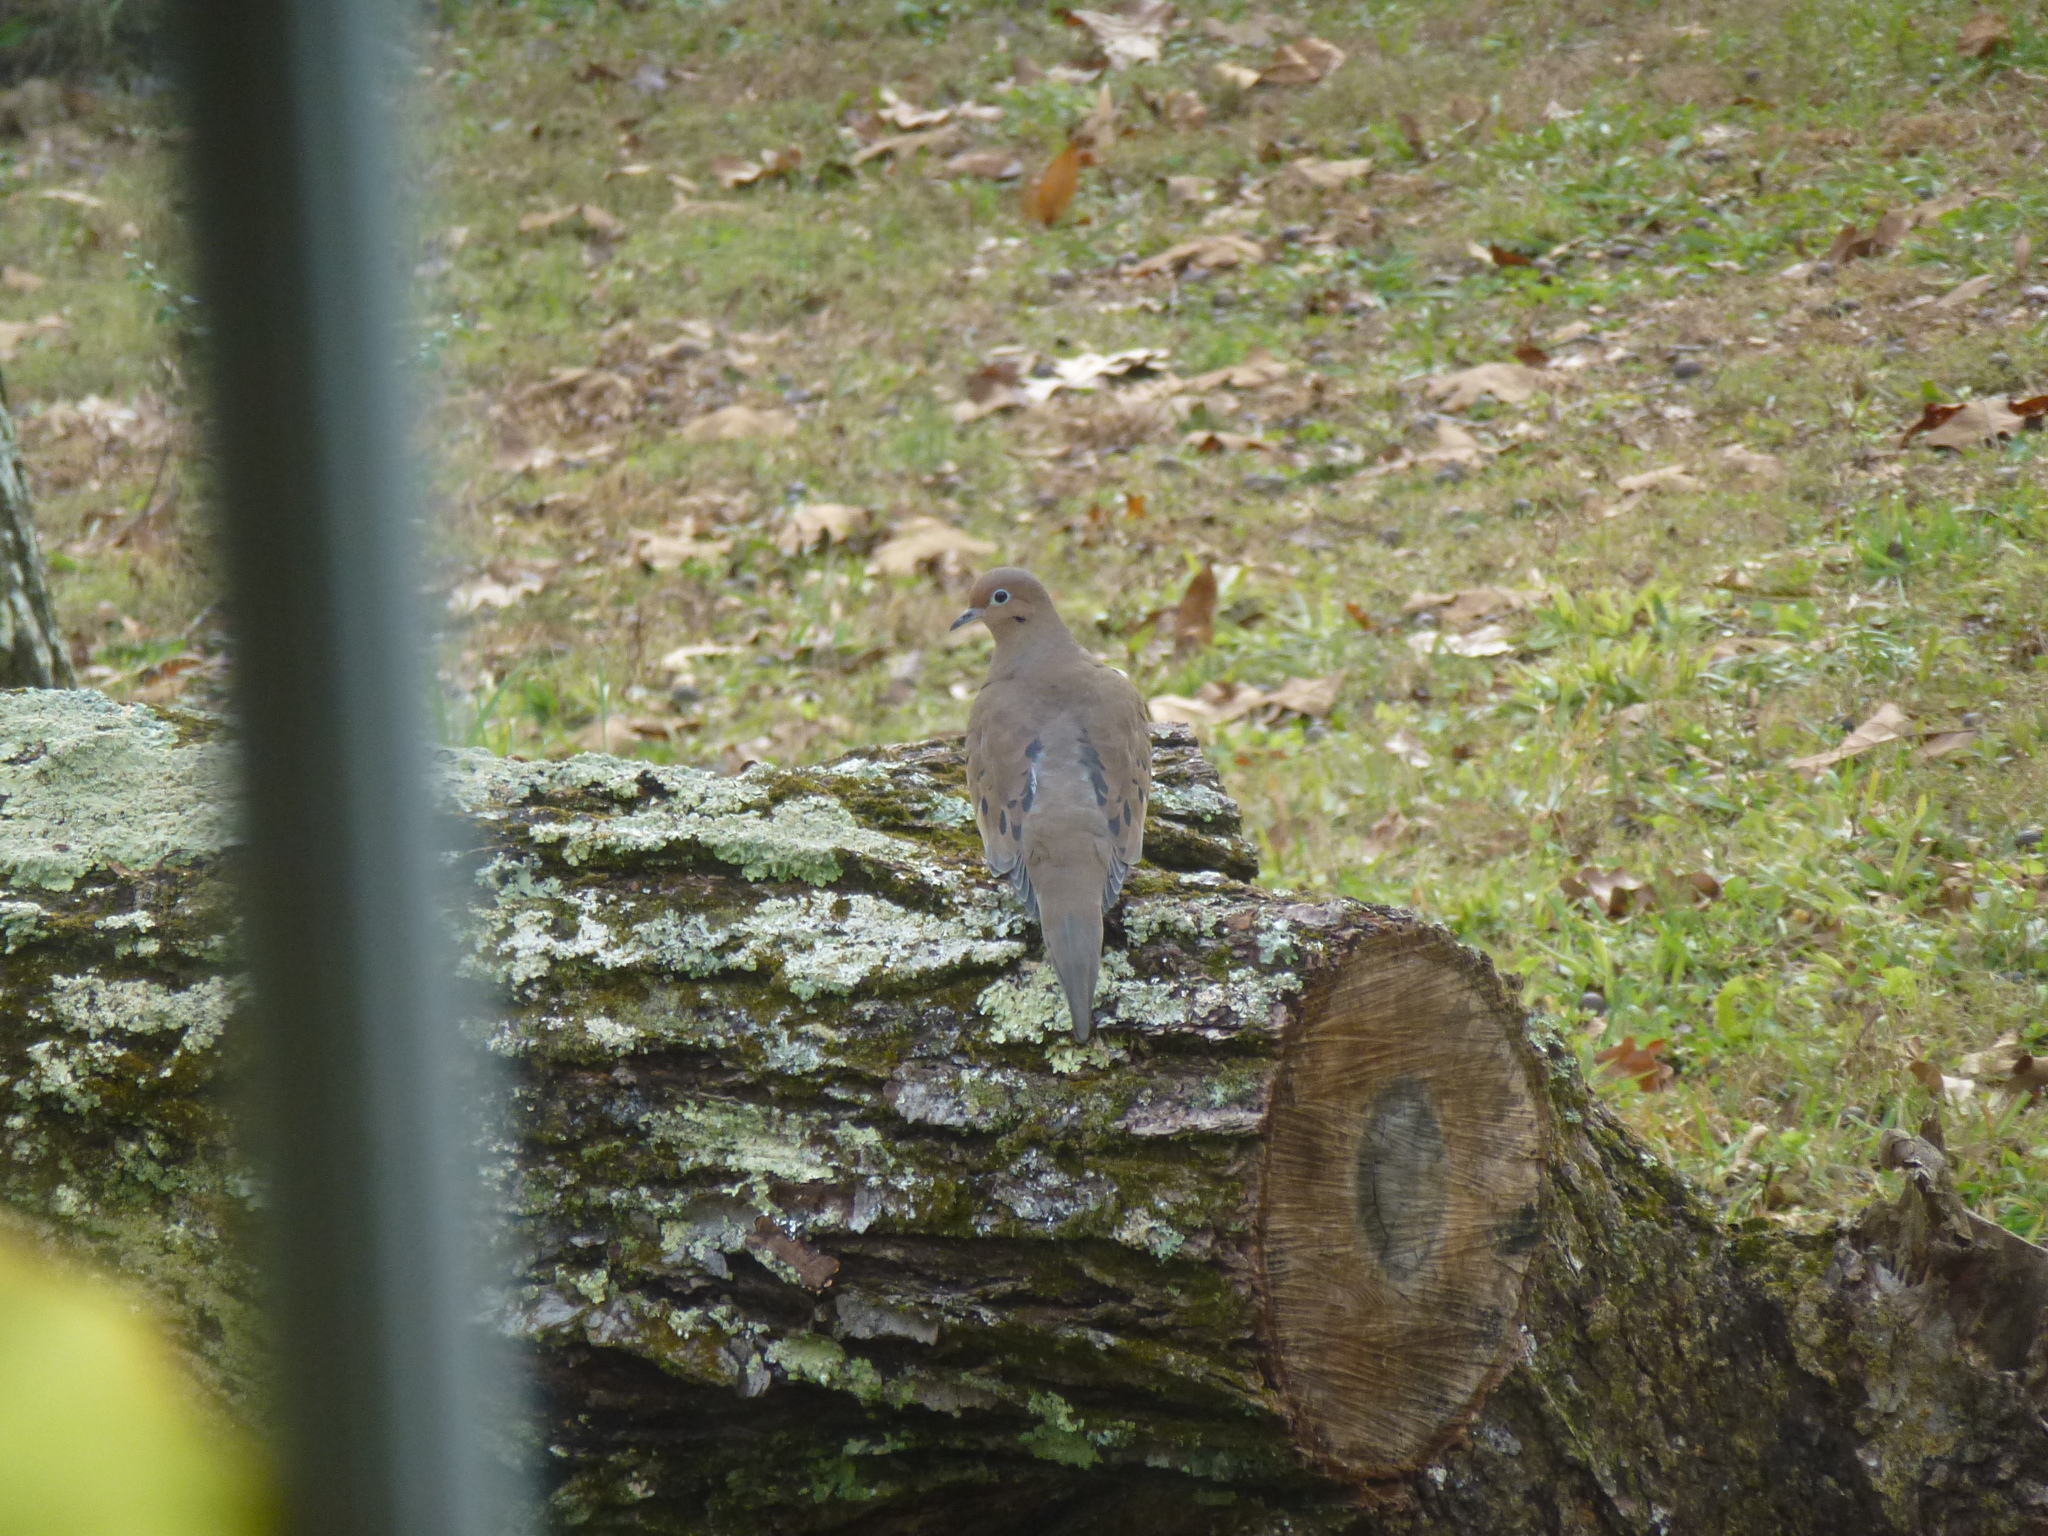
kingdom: Animalia
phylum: Chordata
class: Aves
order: Columbiformes
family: Columbidae
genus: Zenaida
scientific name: Zenaida macroura
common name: Mourning dove
